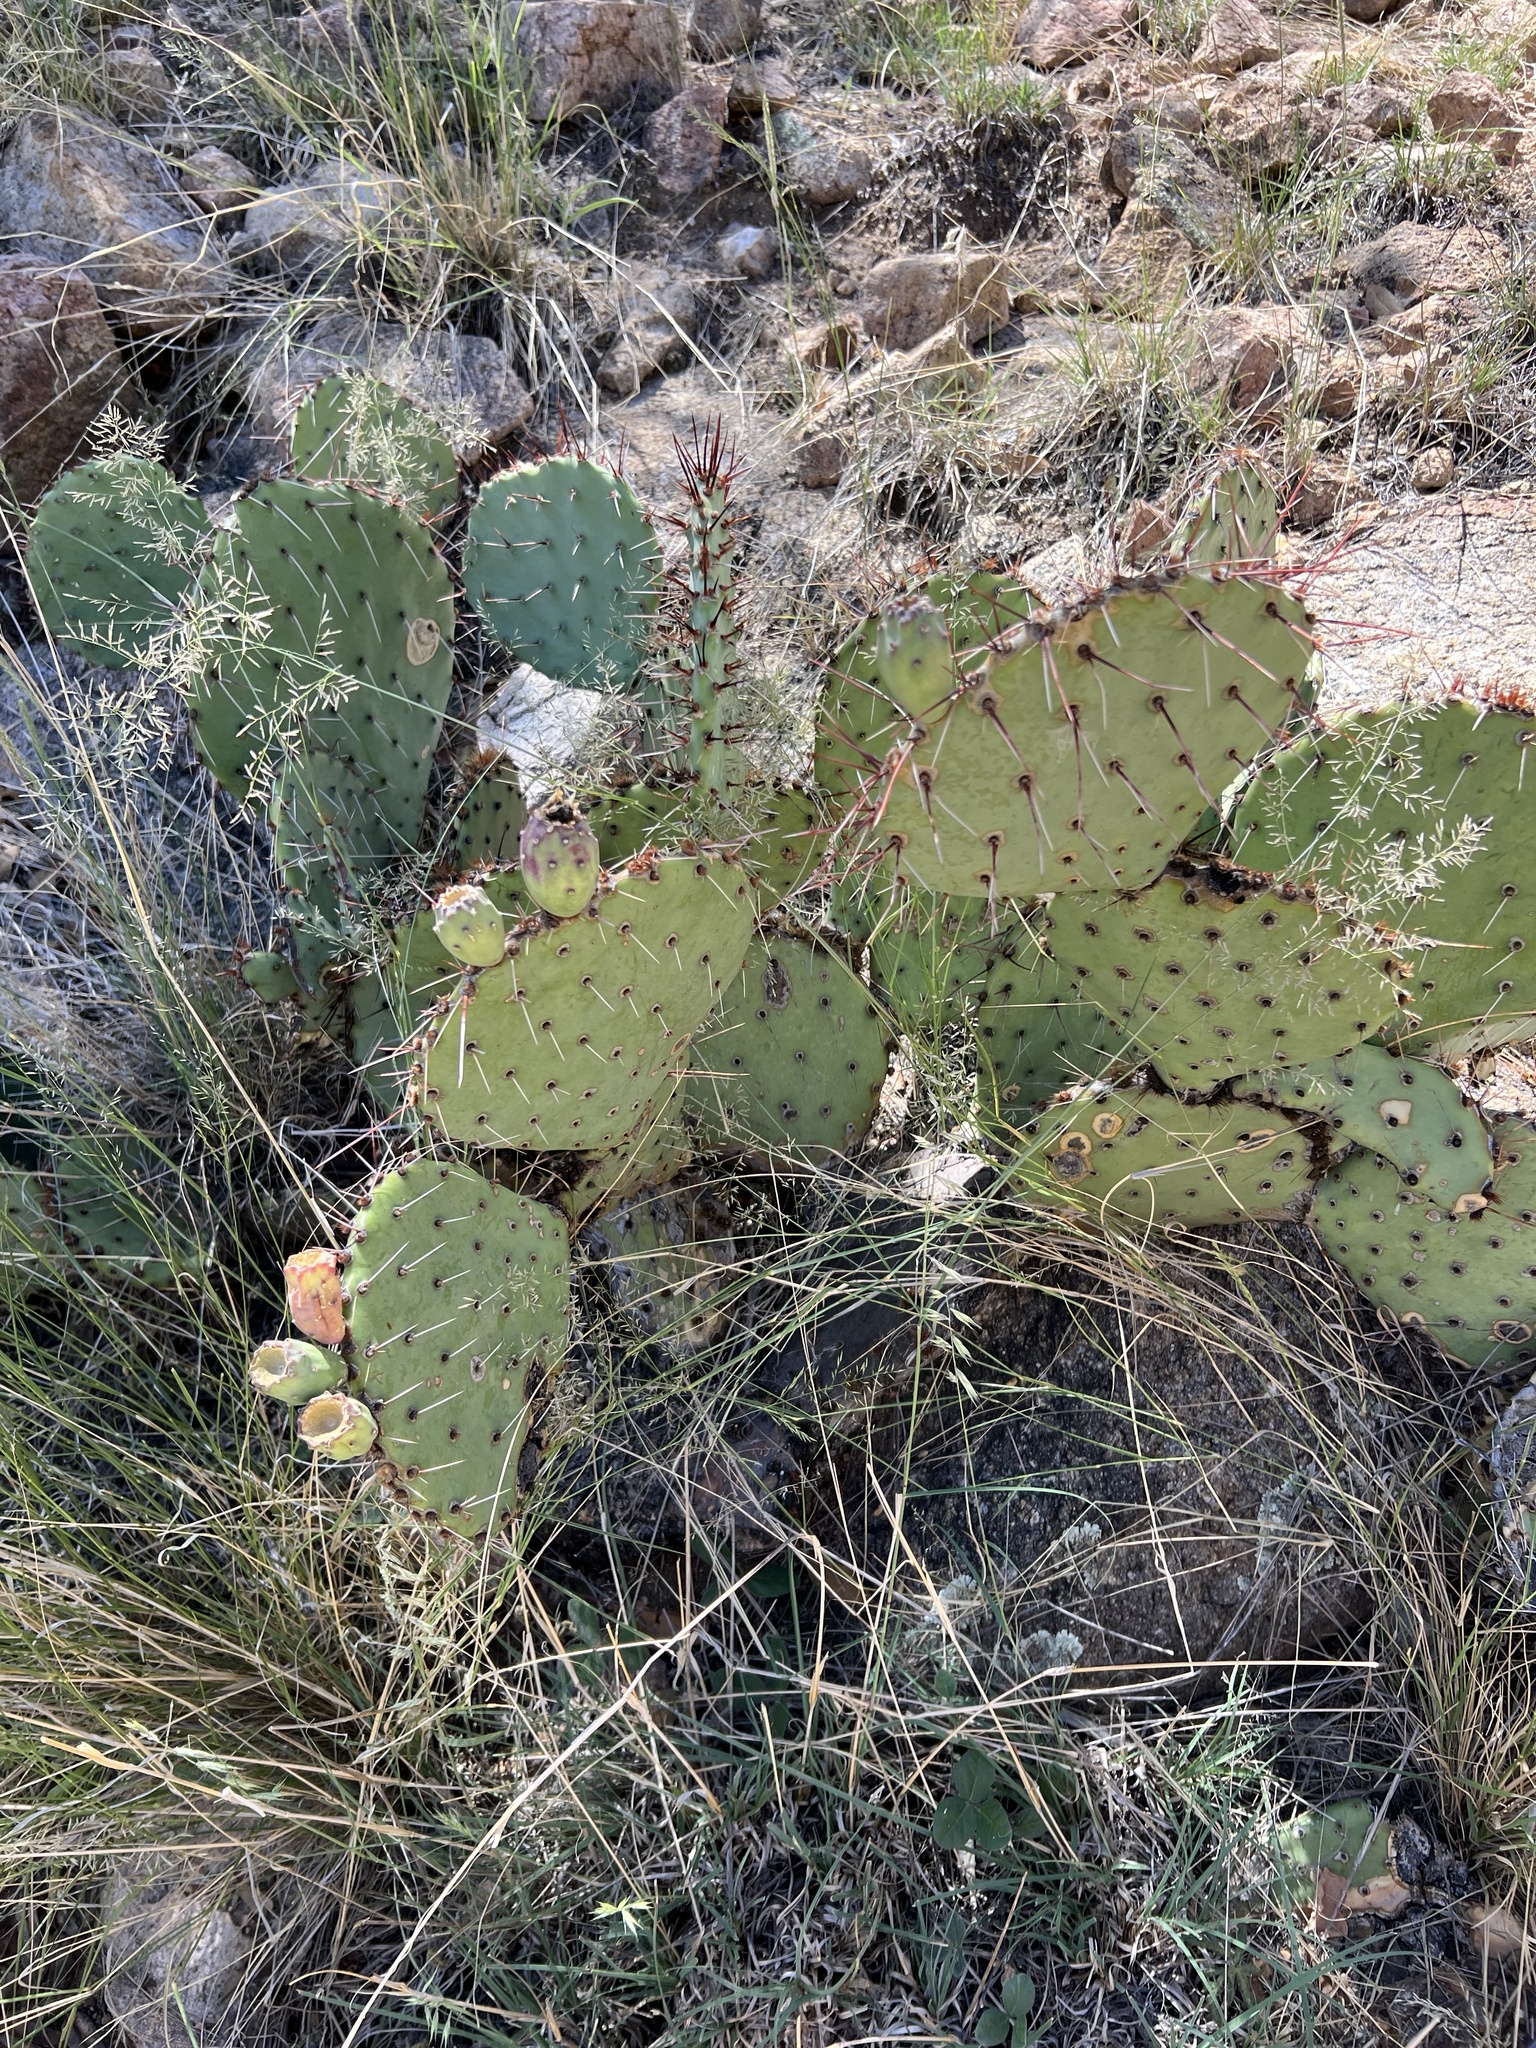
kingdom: Plantae
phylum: Tracheophyta
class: Magnoliopsida
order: Caryophyllales
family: Cactaceae
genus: Opuntia
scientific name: Opuntia engelmannii
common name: Cactus-apple
